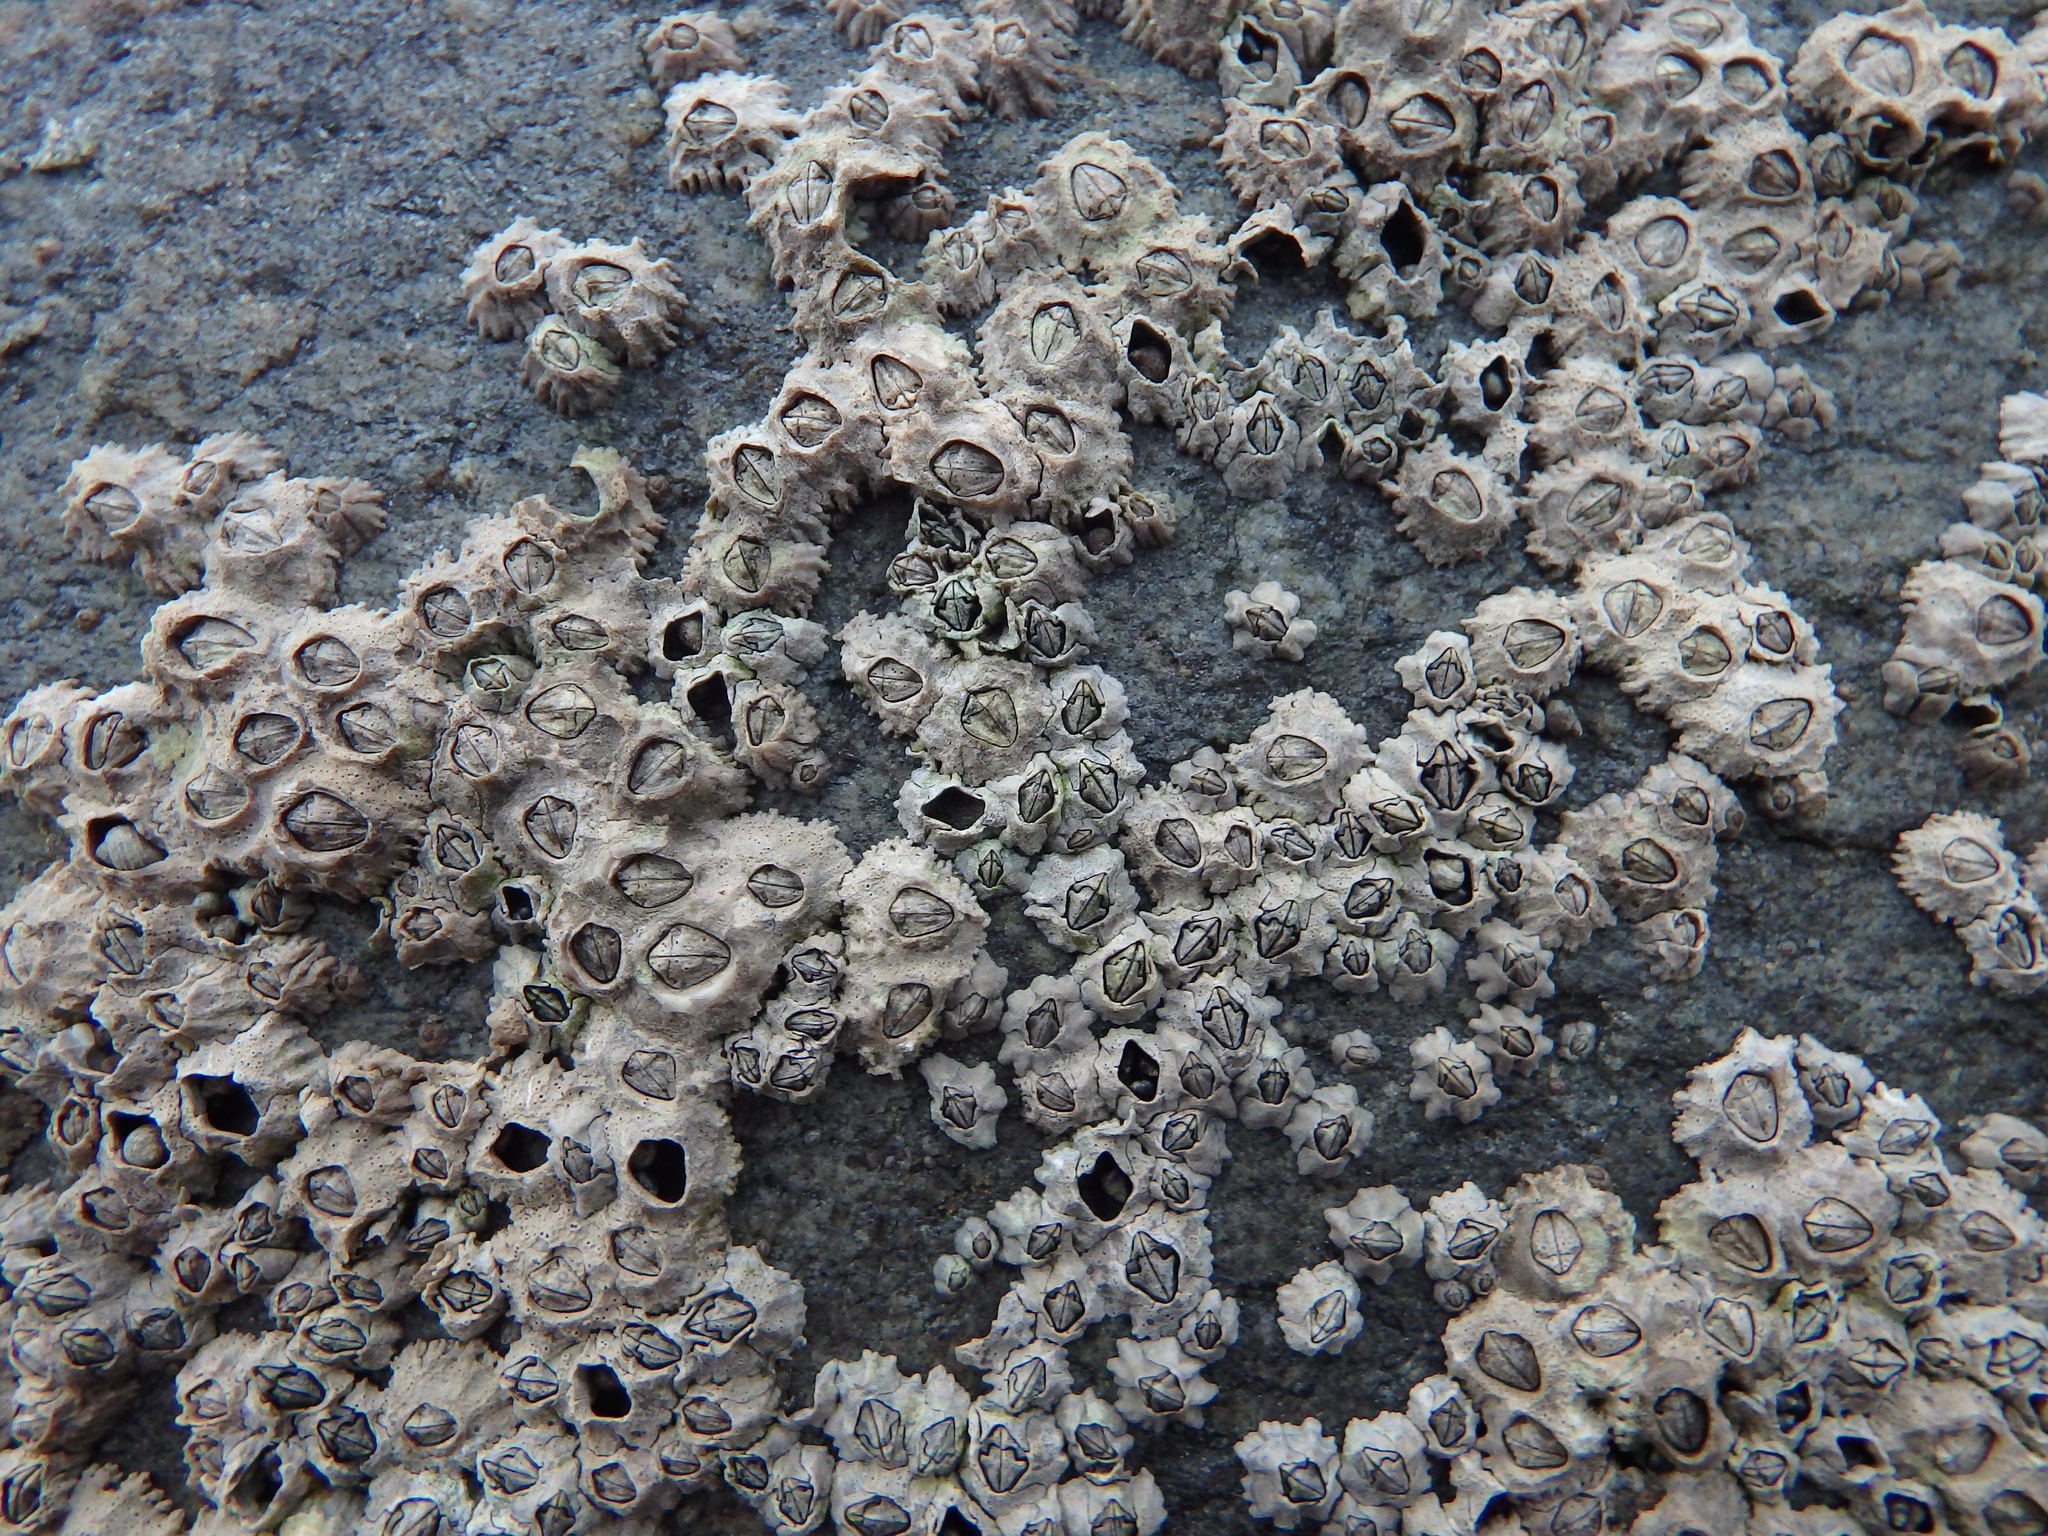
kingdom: Animalia
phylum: Arthropoda
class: Maxillopoda
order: Sessilia
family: Chthamalidae
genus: Chthamalus
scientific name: Chthamalus montagui
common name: Montagu's stellate barnacle
